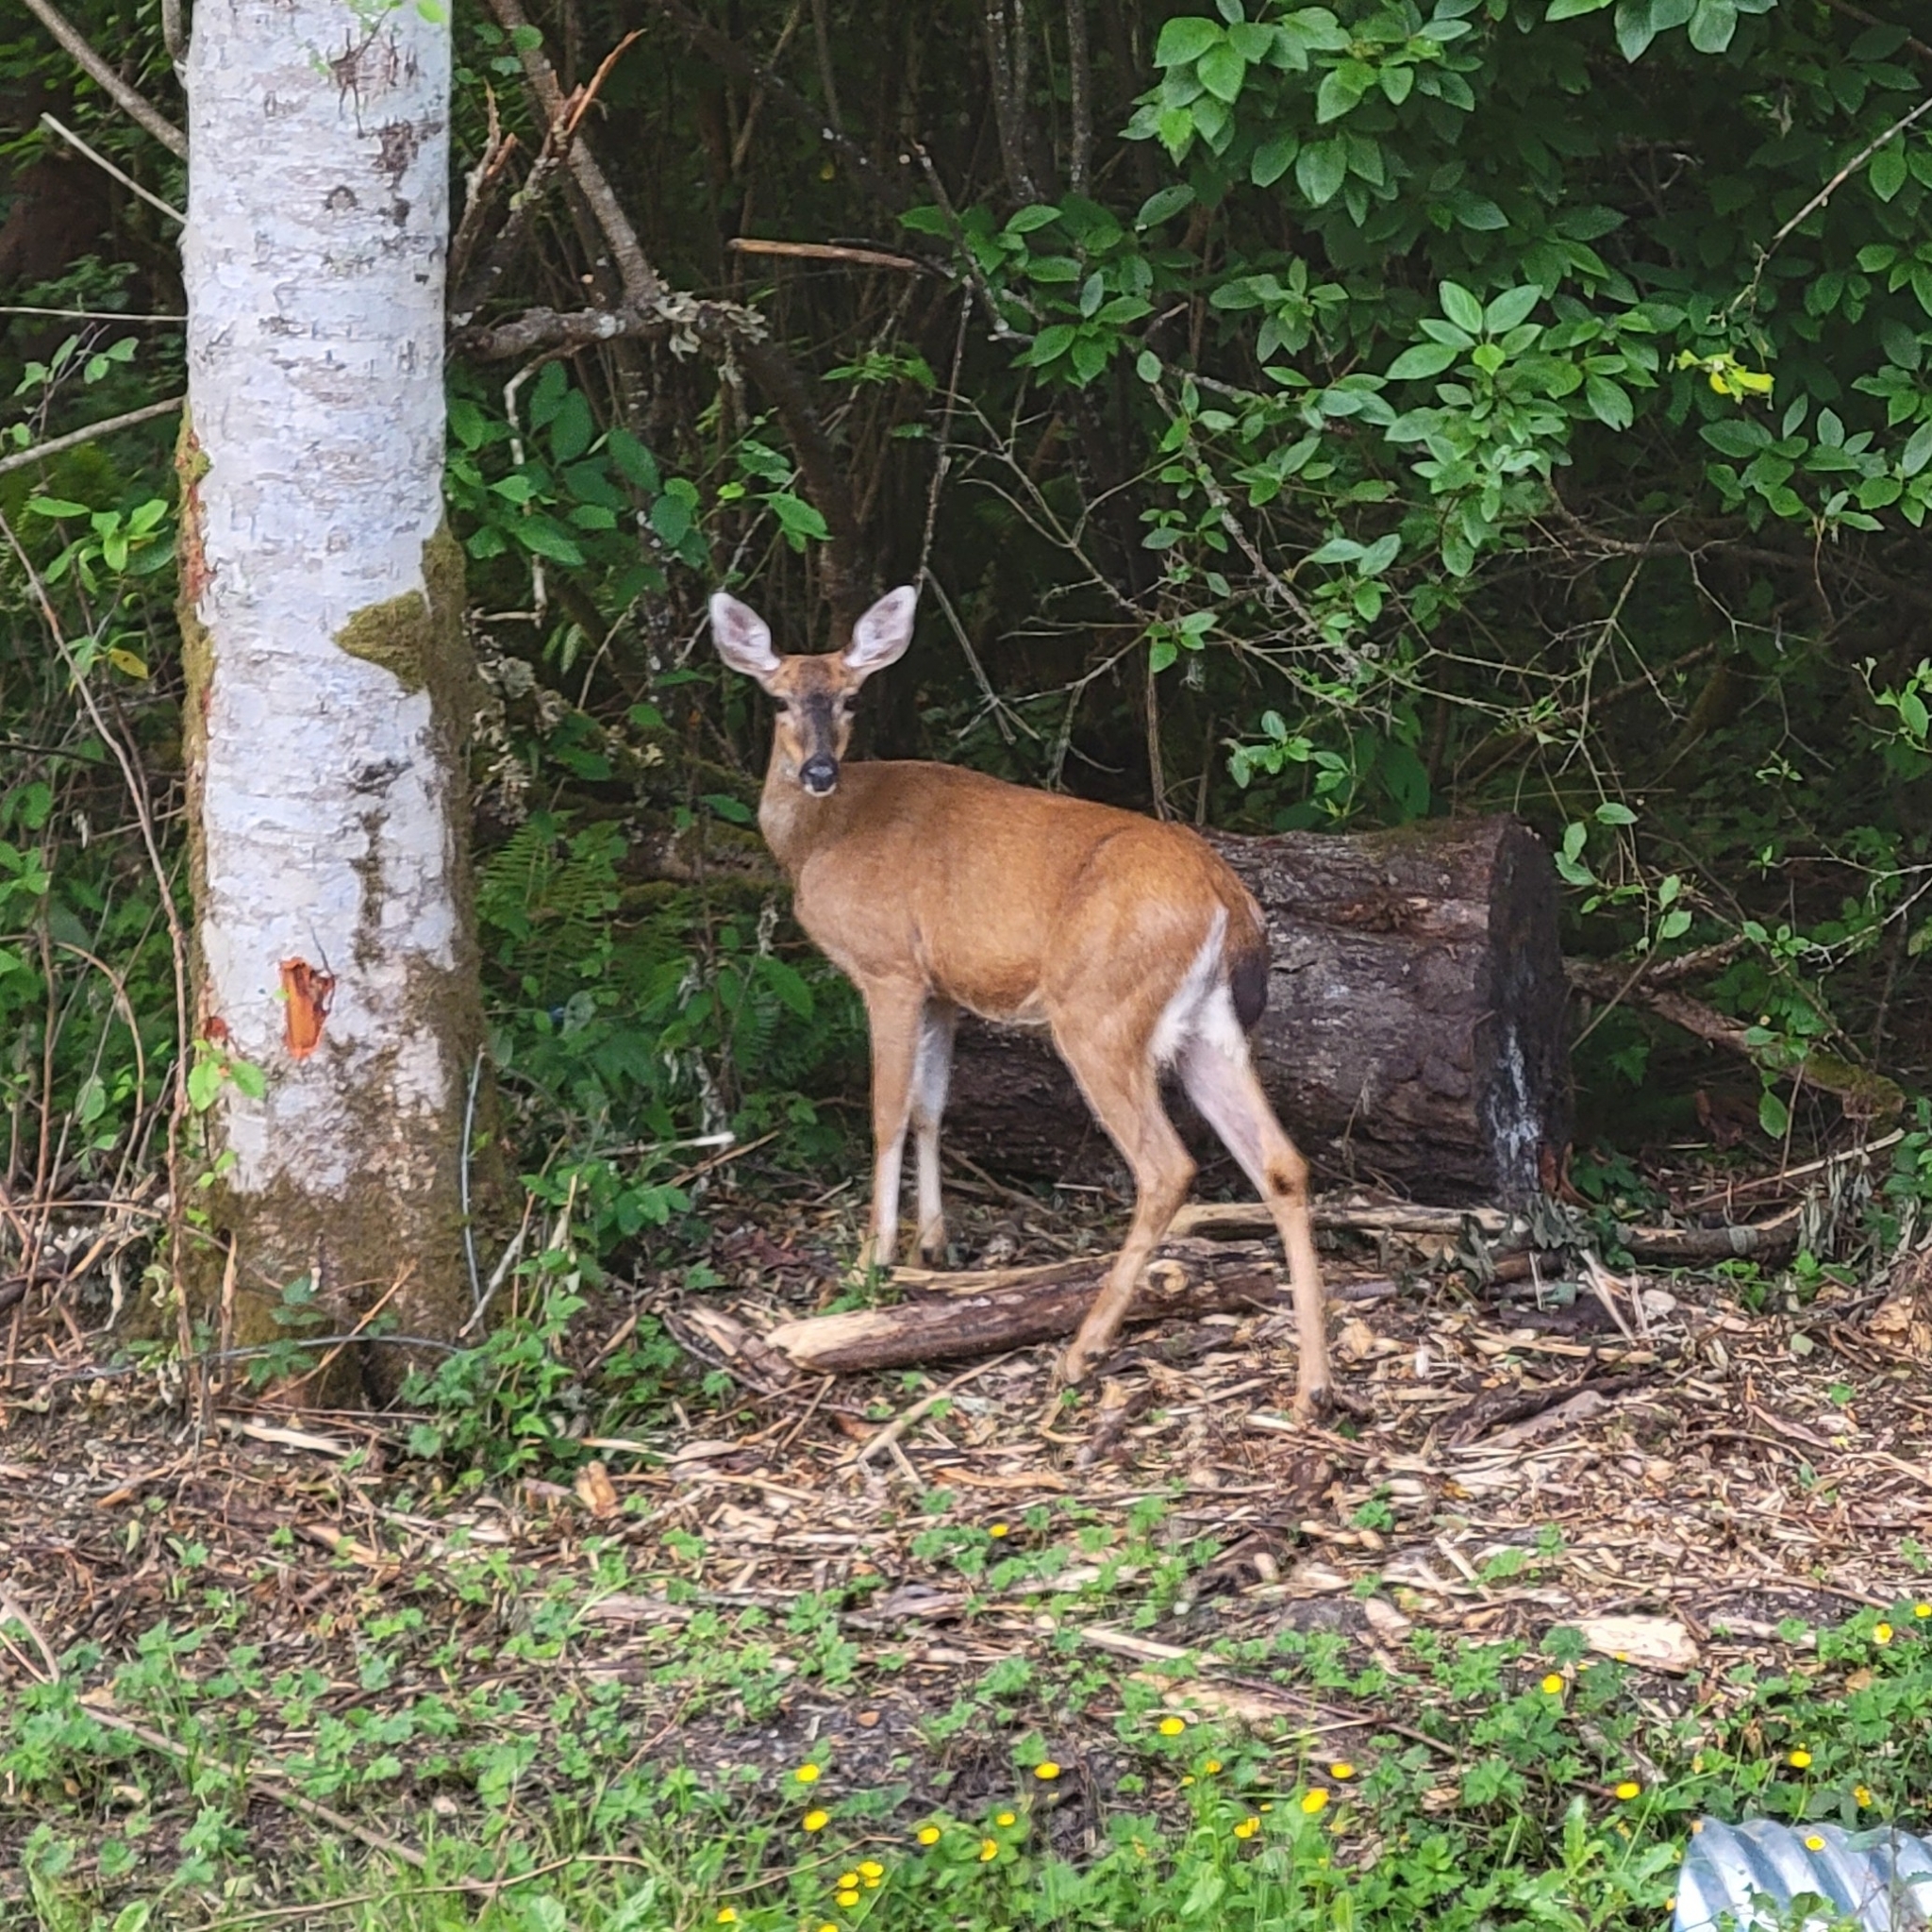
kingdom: Animalia
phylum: Chordata
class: Mammalia
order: Artiodactyla
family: Cervidae
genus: Odocoileus
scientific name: Odocoileus hemionus
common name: Mule deer
